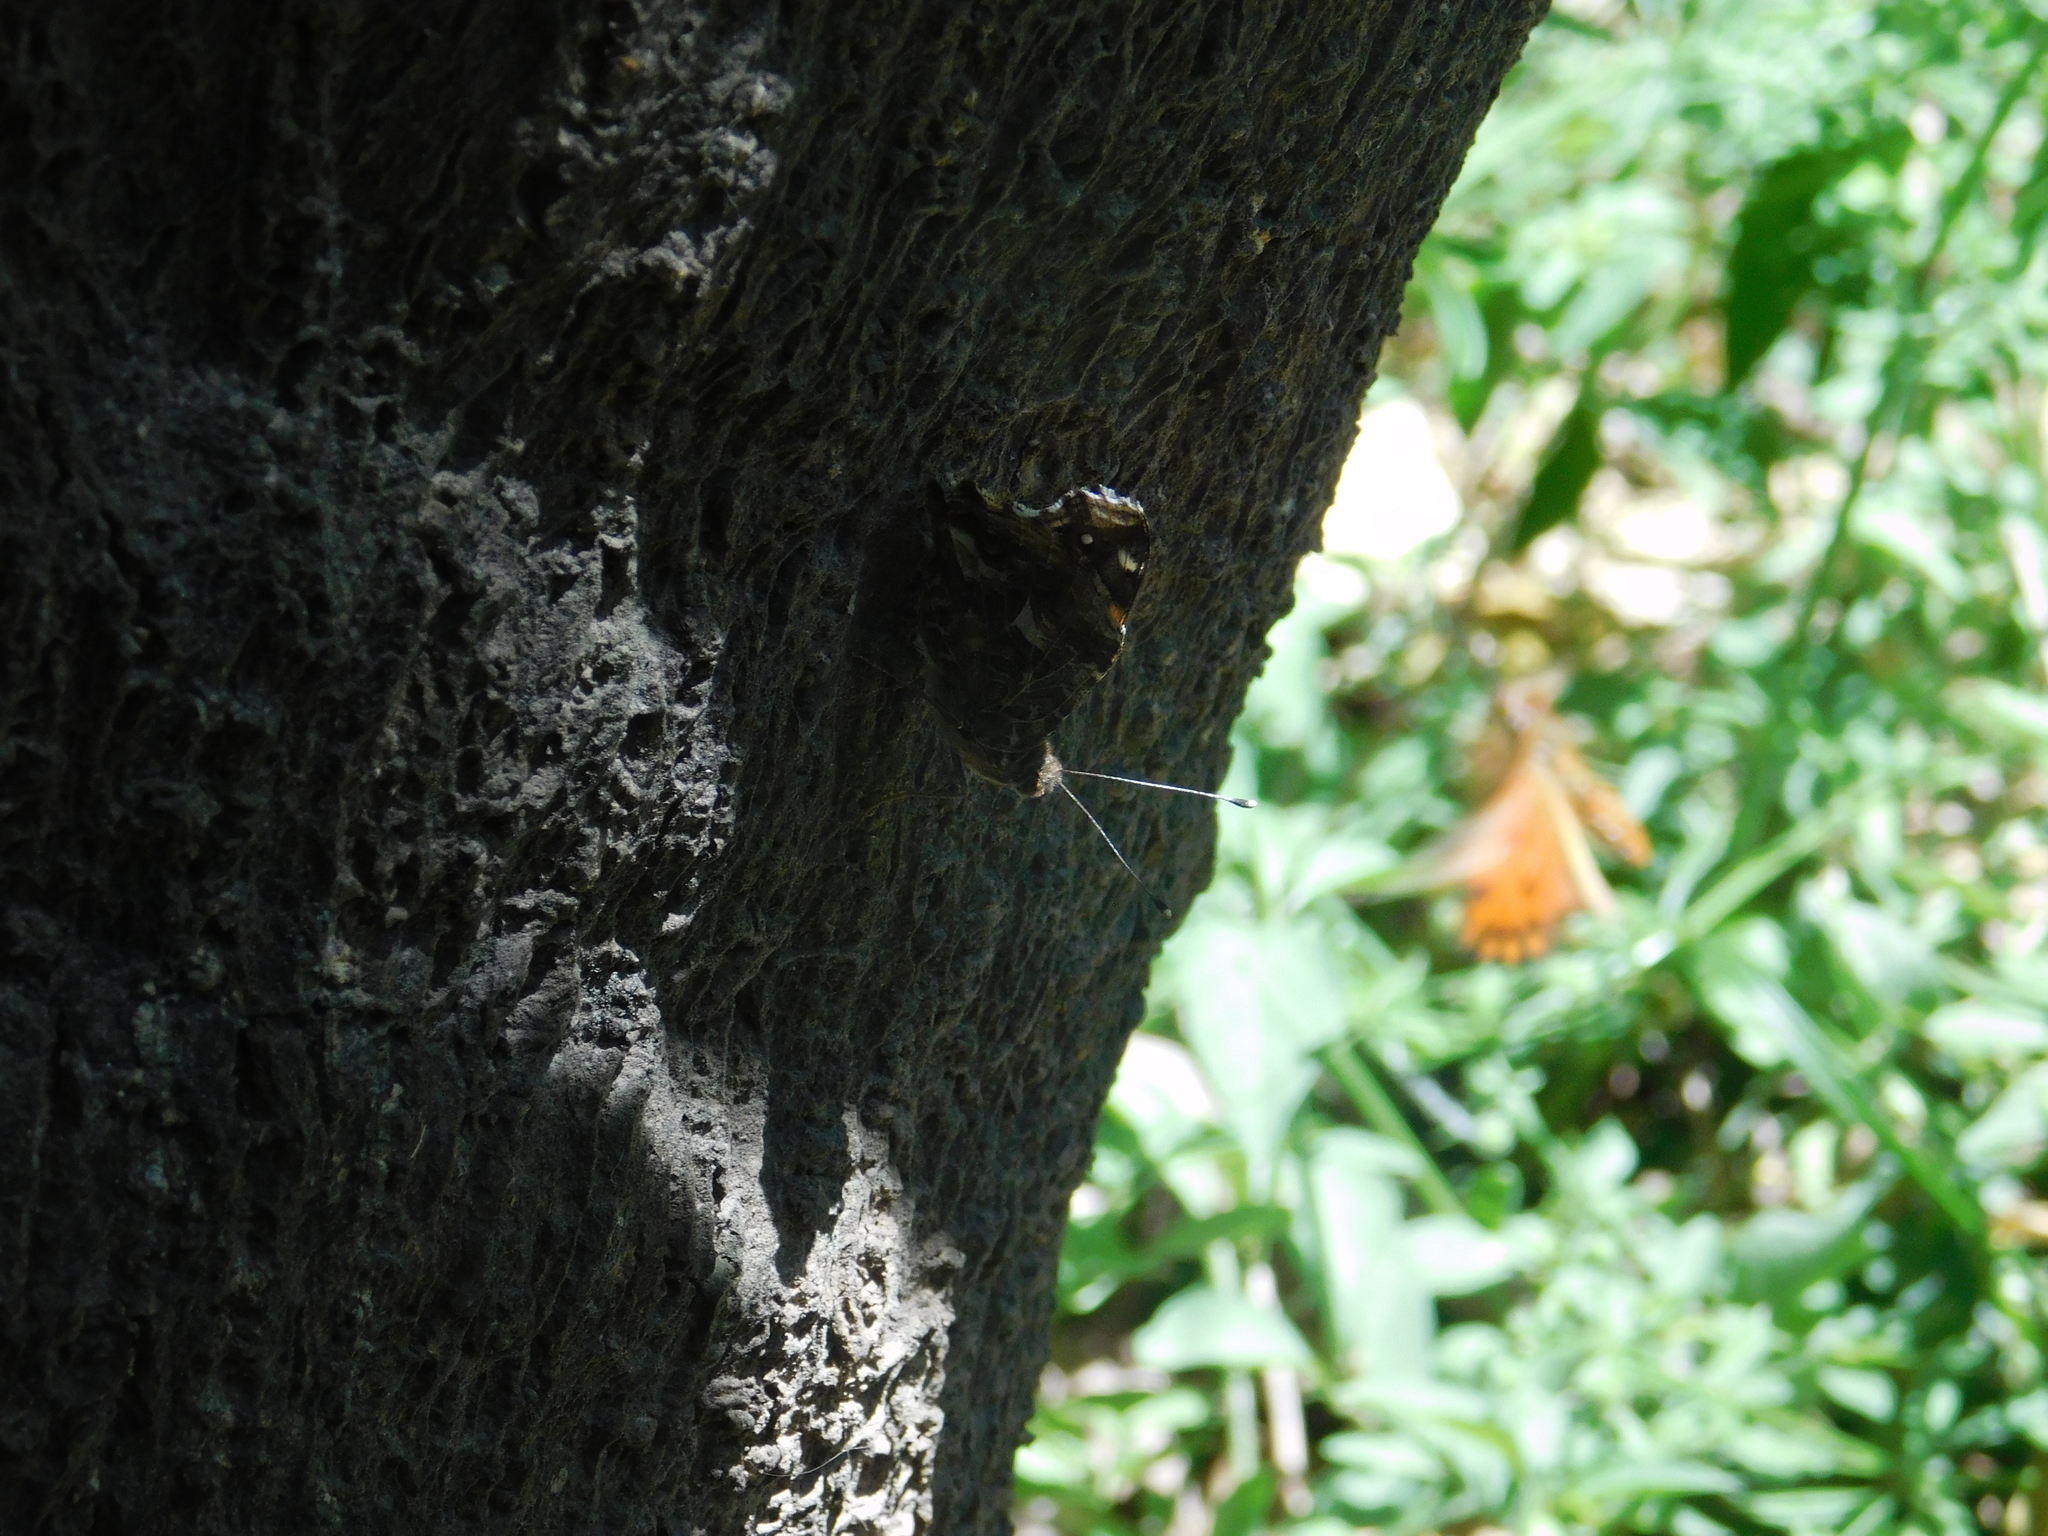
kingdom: Animalia
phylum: Arthropoda
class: Insecta
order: Lepidoptera
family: Nymphalidae
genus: Vanessa
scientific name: Vanessa carye
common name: Subtropical lady
